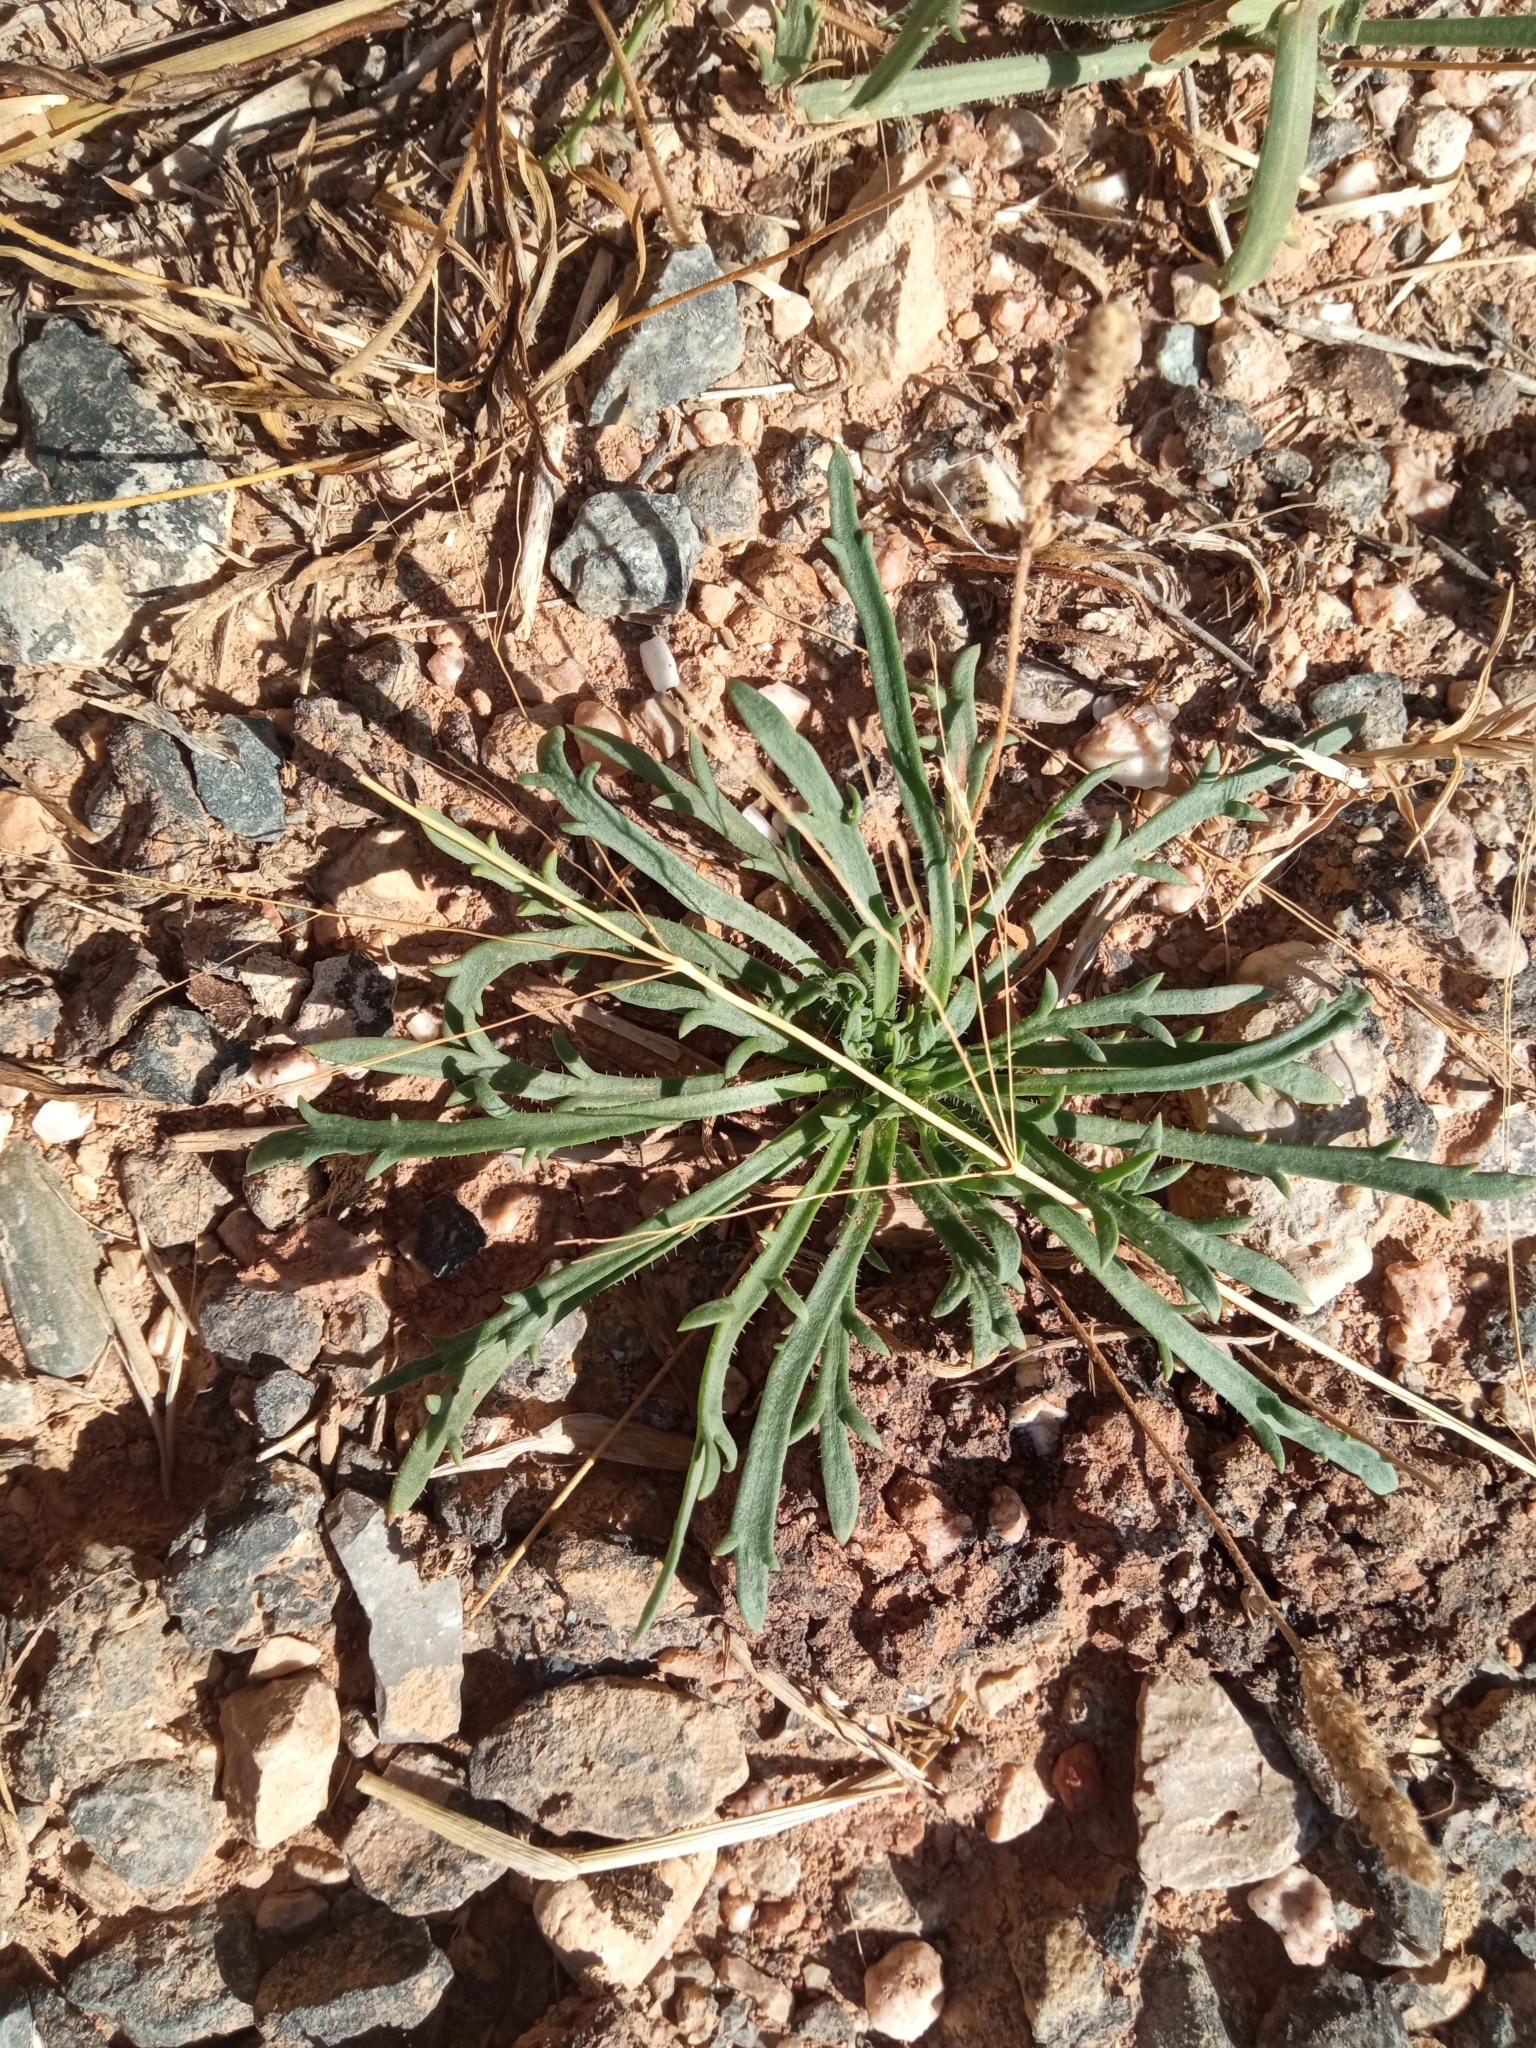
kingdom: Plantae
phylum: Tracheophyta
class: Magnoliopsida
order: Lamiales
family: Plantaginaceae
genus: Plantago
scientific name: Plantago coronopus
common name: Buck's-horn plantain
